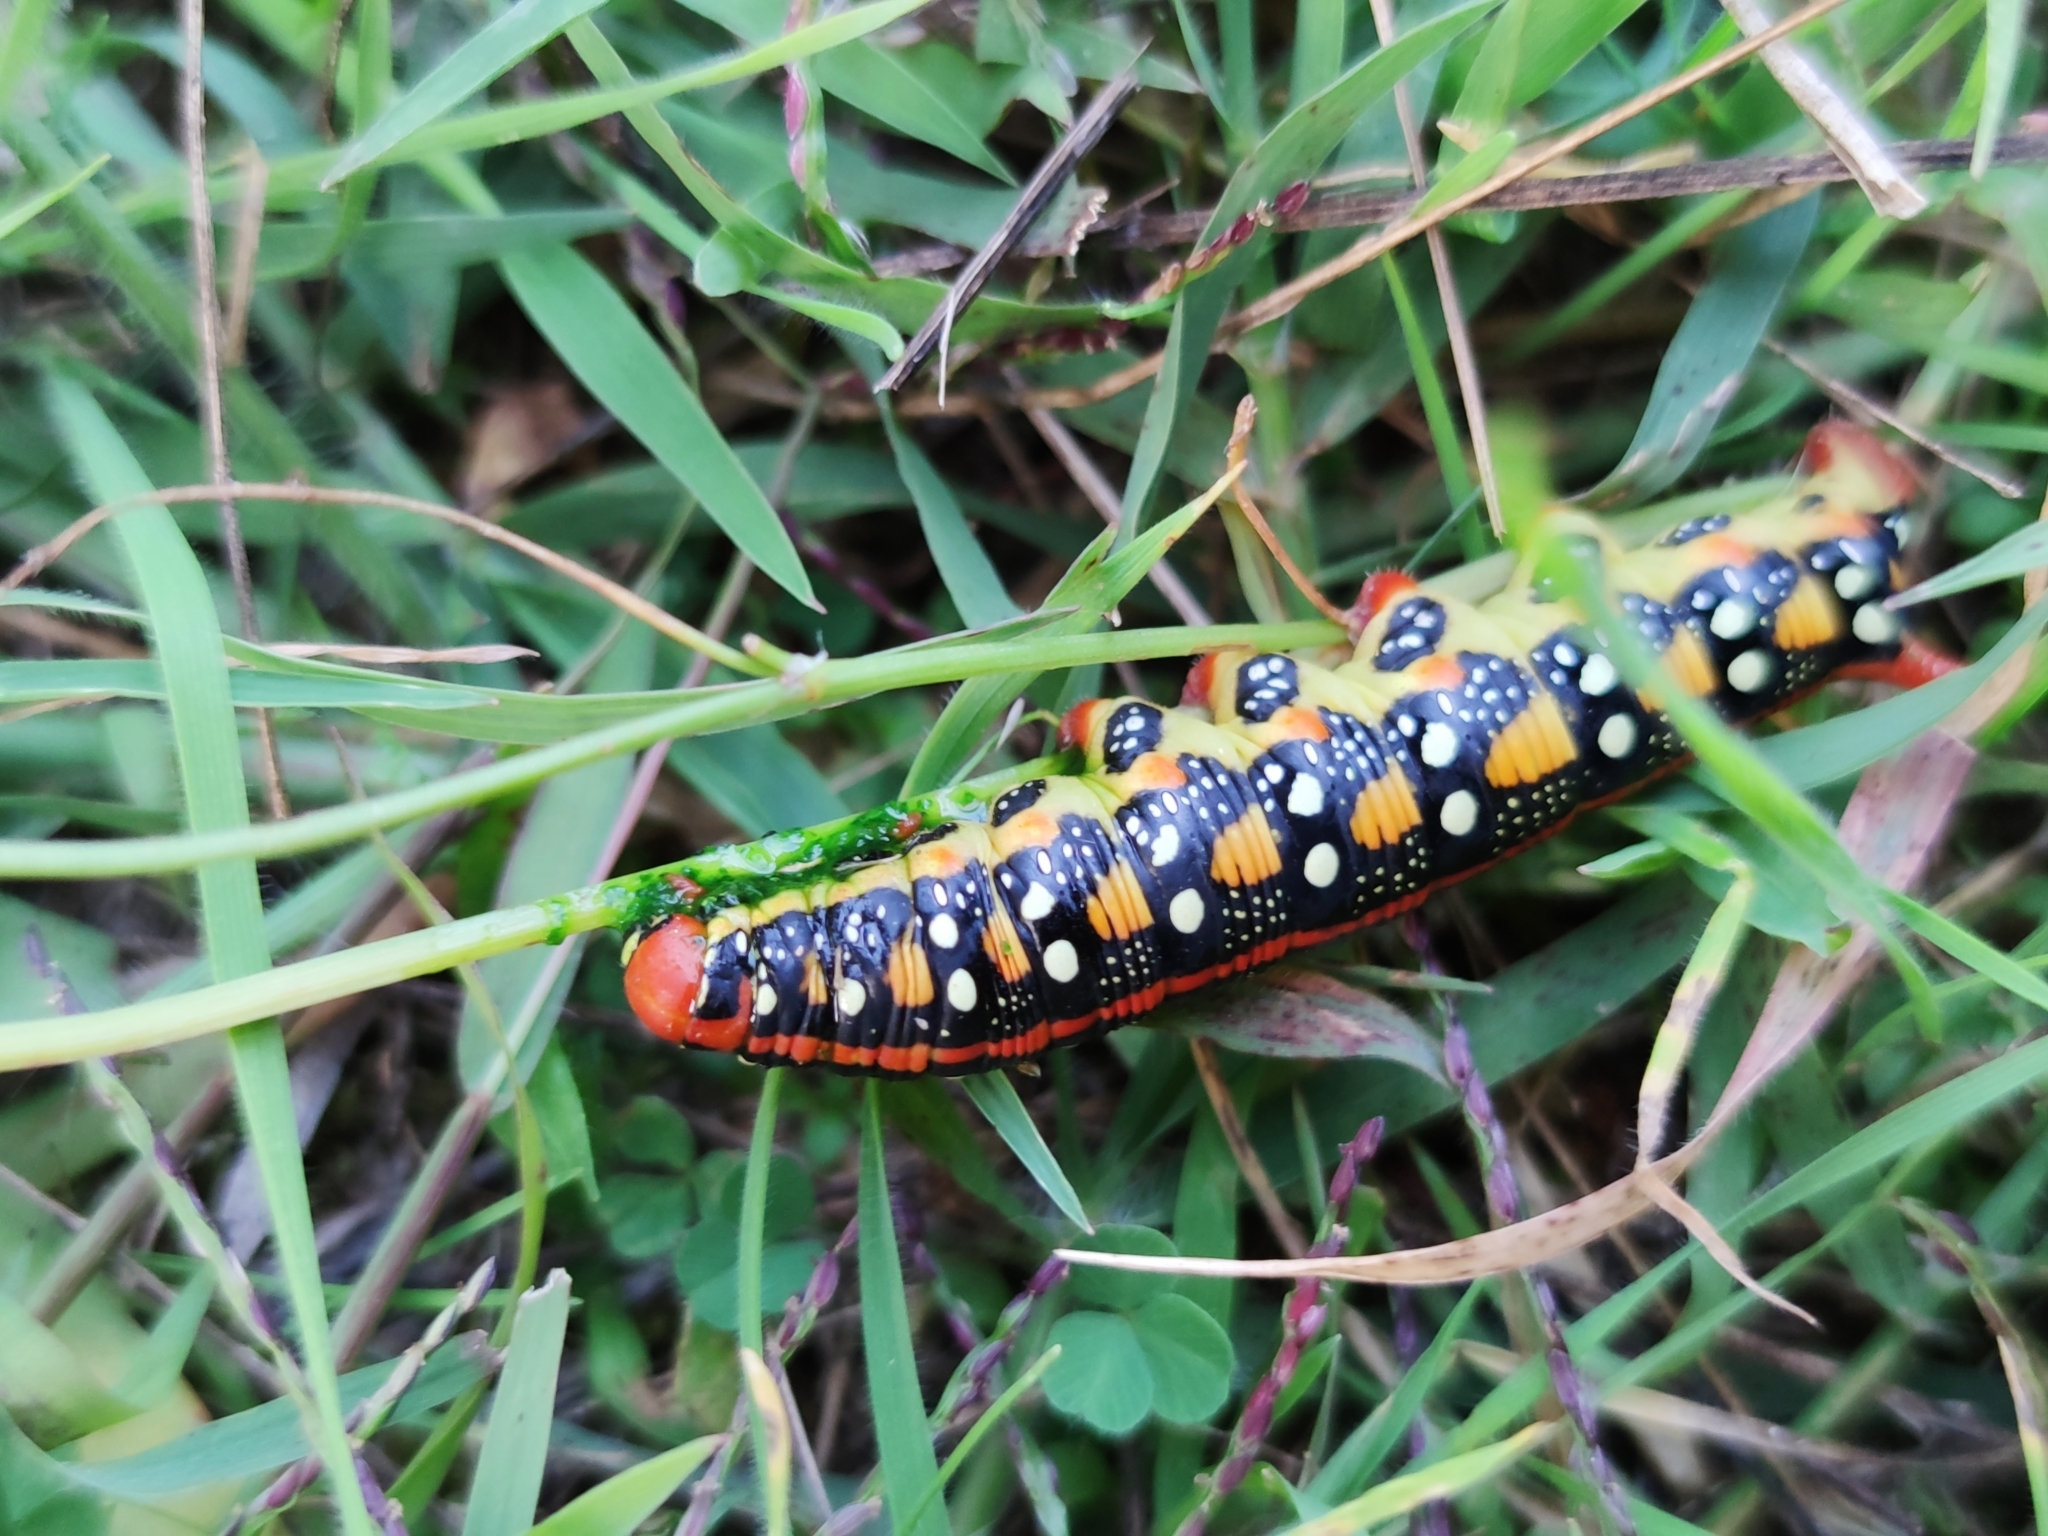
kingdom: Animalia
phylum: Arthropoda
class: Insecta
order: Lepidoptera
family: Sphingidae
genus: Hyles
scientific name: Hyles euphorbiae
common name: Spurge hawk-moth
